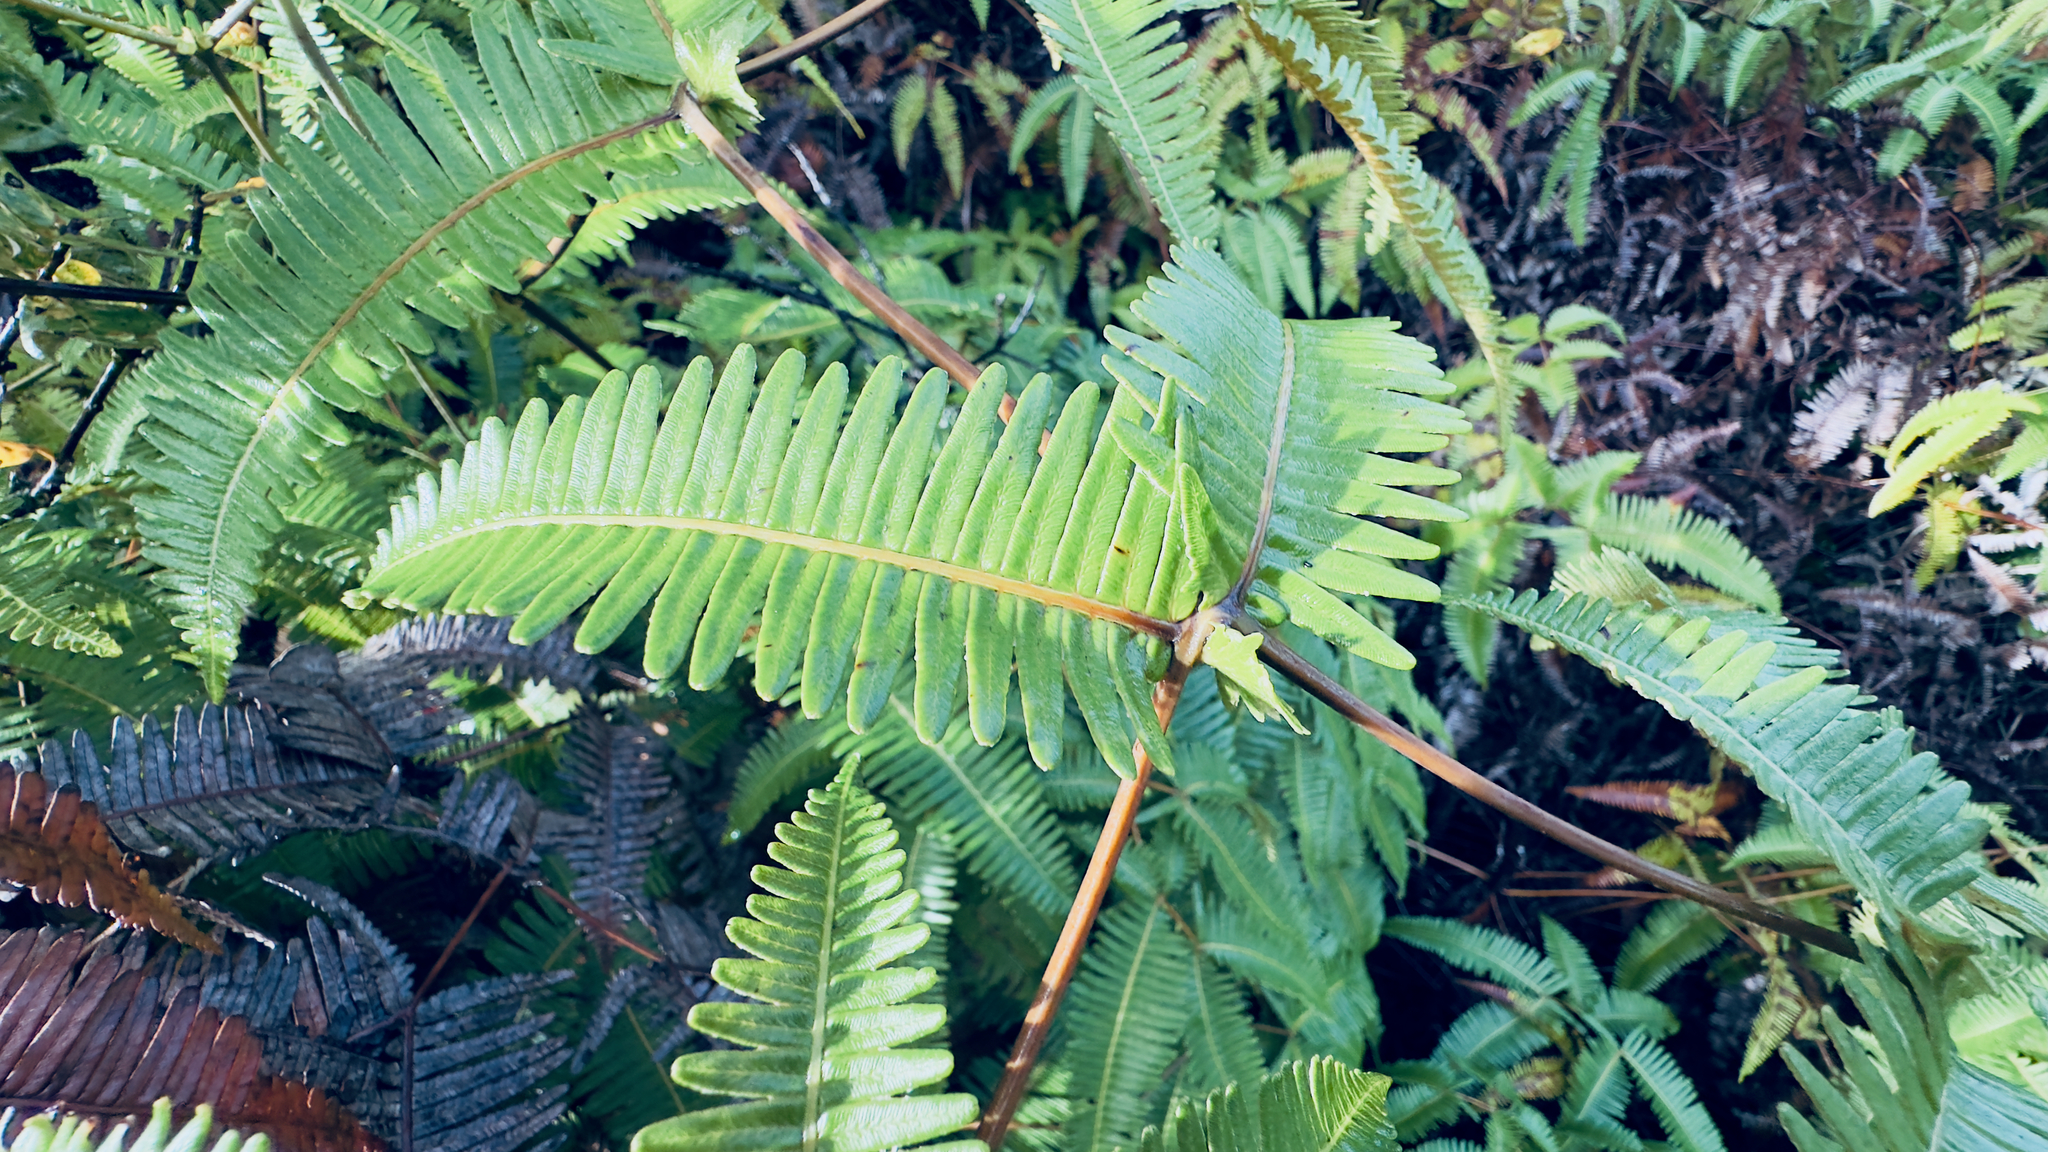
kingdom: Plantae
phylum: Tracheophyta
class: Polypodiopsida
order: Gleicheniales
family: Gleicheniaceae
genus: Dicranopteris
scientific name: Dicranopteris linearis
